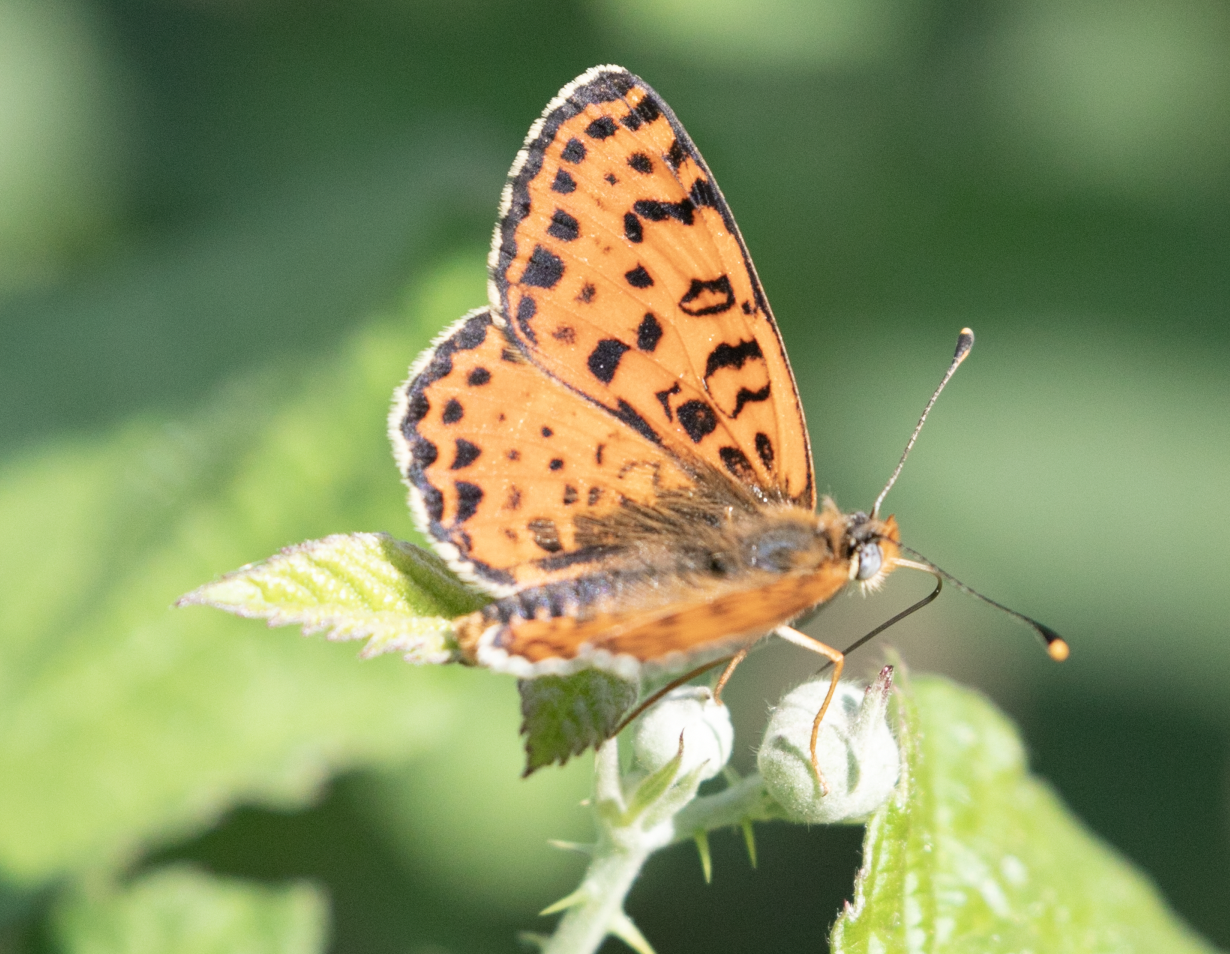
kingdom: Animalia
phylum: Arthropoda
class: Insecta
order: Lepidoptera
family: Nymphalidae
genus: Melitaea
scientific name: Melitaea didyma
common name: Spotted fritillary
